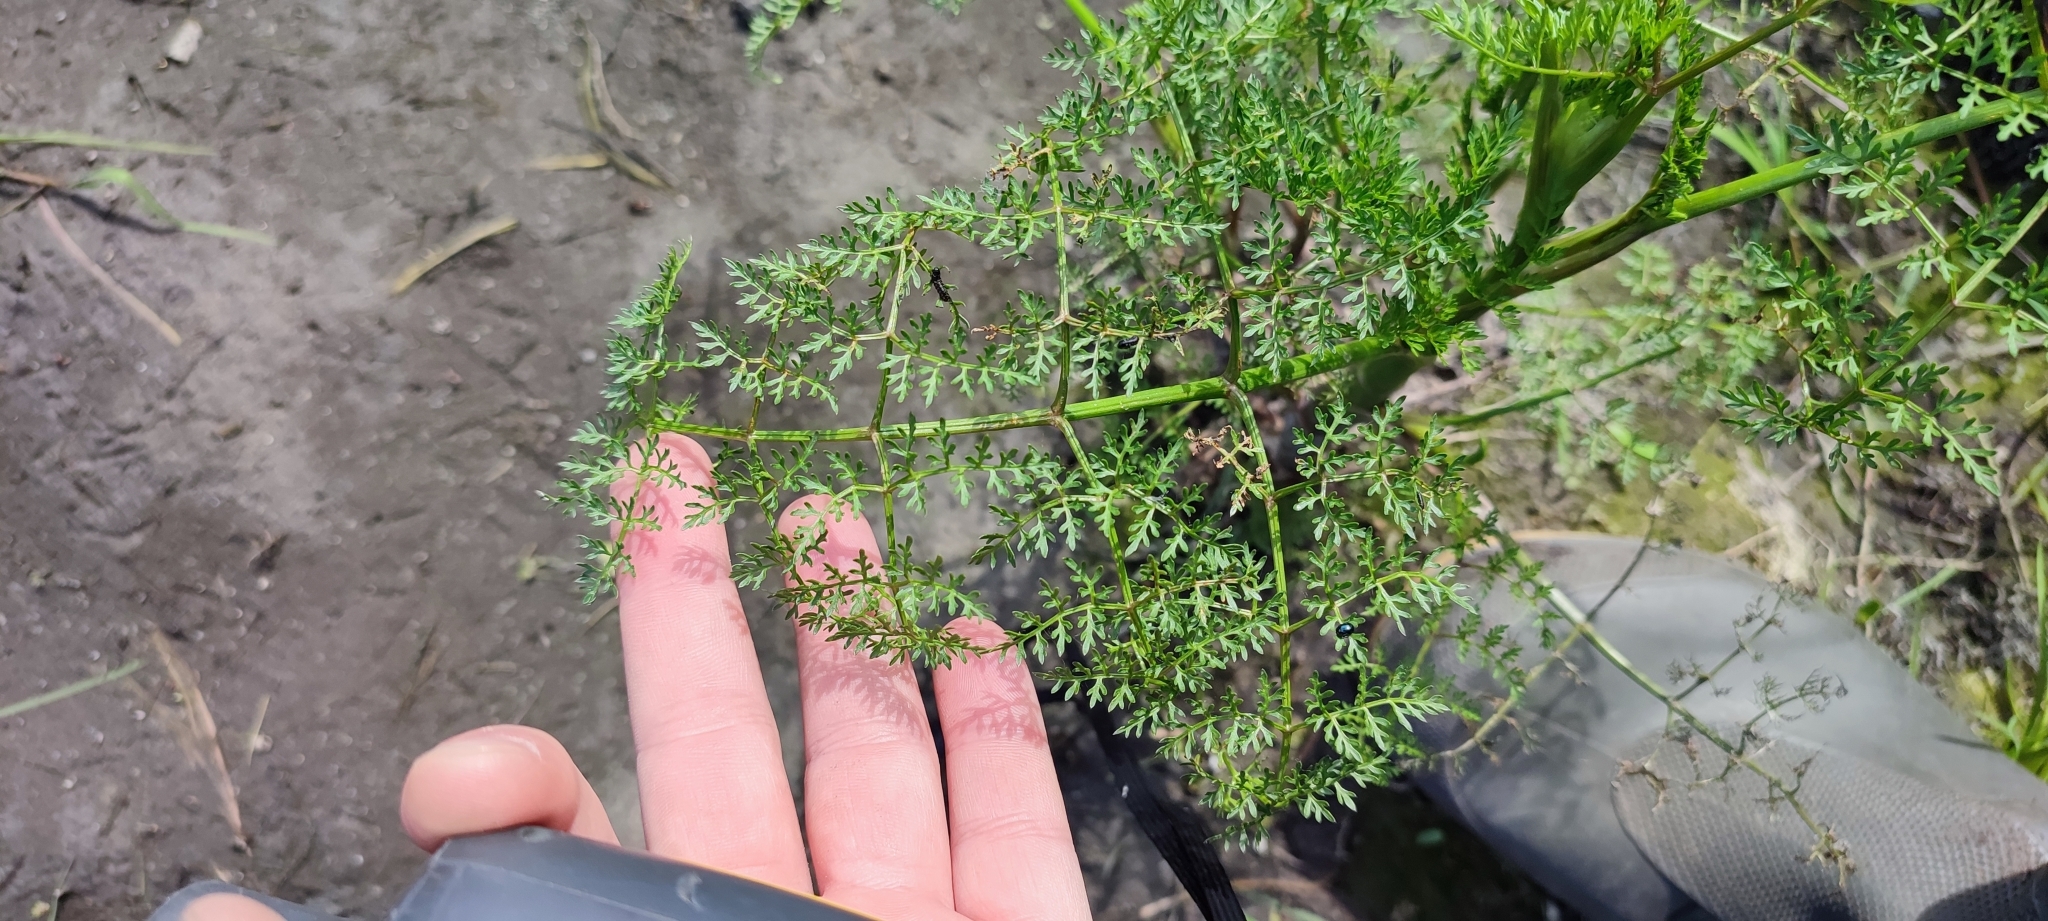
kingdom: Plantae
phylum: Tracheophyta
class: Magnoliopsida
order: Apiales
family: Apiaceae
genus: Oenanthe
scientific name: Oenanthe aquatica
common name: Fine-leaved water-dropwort
